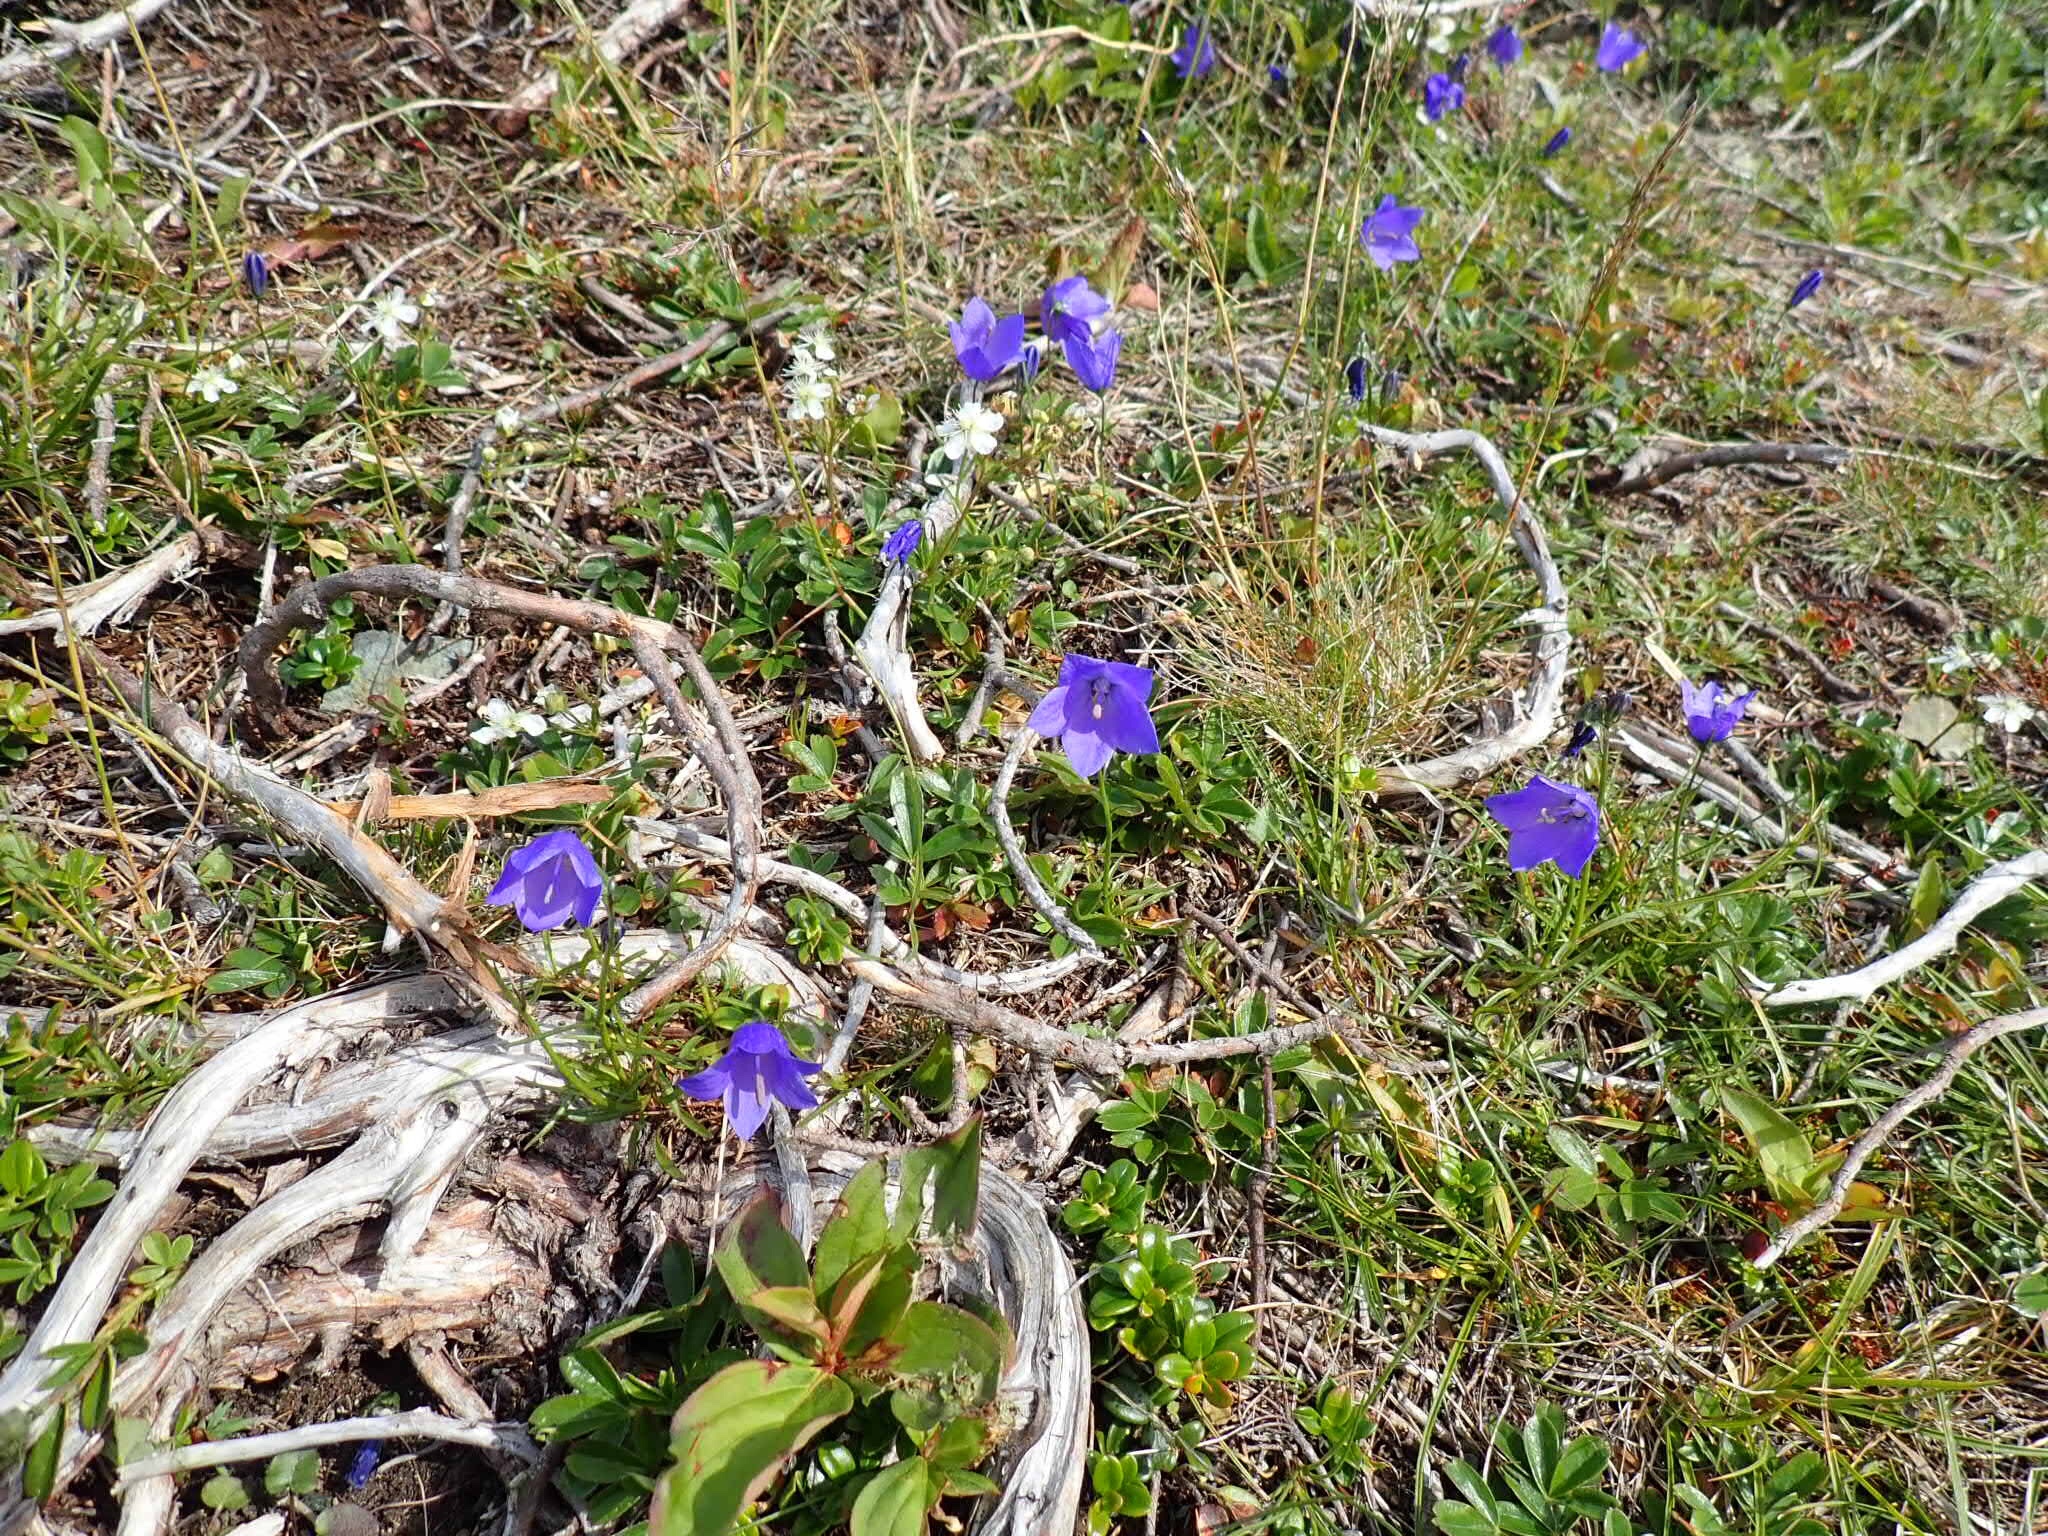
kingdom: Plantae
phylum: Tracheophyta
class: Magnoliopsida
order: Asterales
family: Campanulaceae
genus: Campanula
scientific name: Campanula giesekiana
